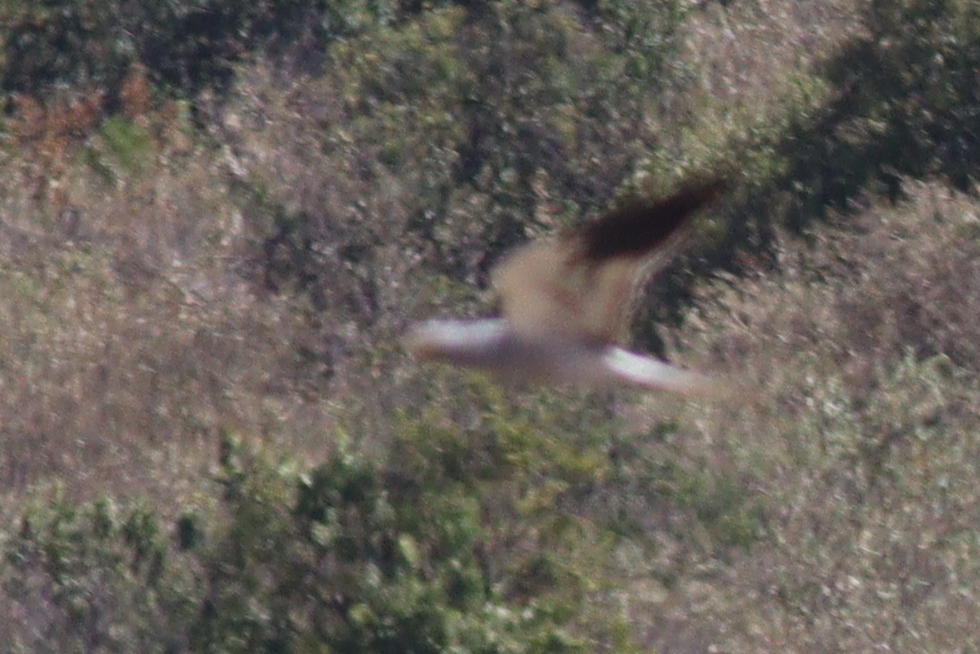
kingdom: Animalia
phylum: Chordata
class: Aves
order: Accipitriformes
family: Accipitridae
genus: Circus
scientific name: Circus pygargus
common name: Montagu's harrier
